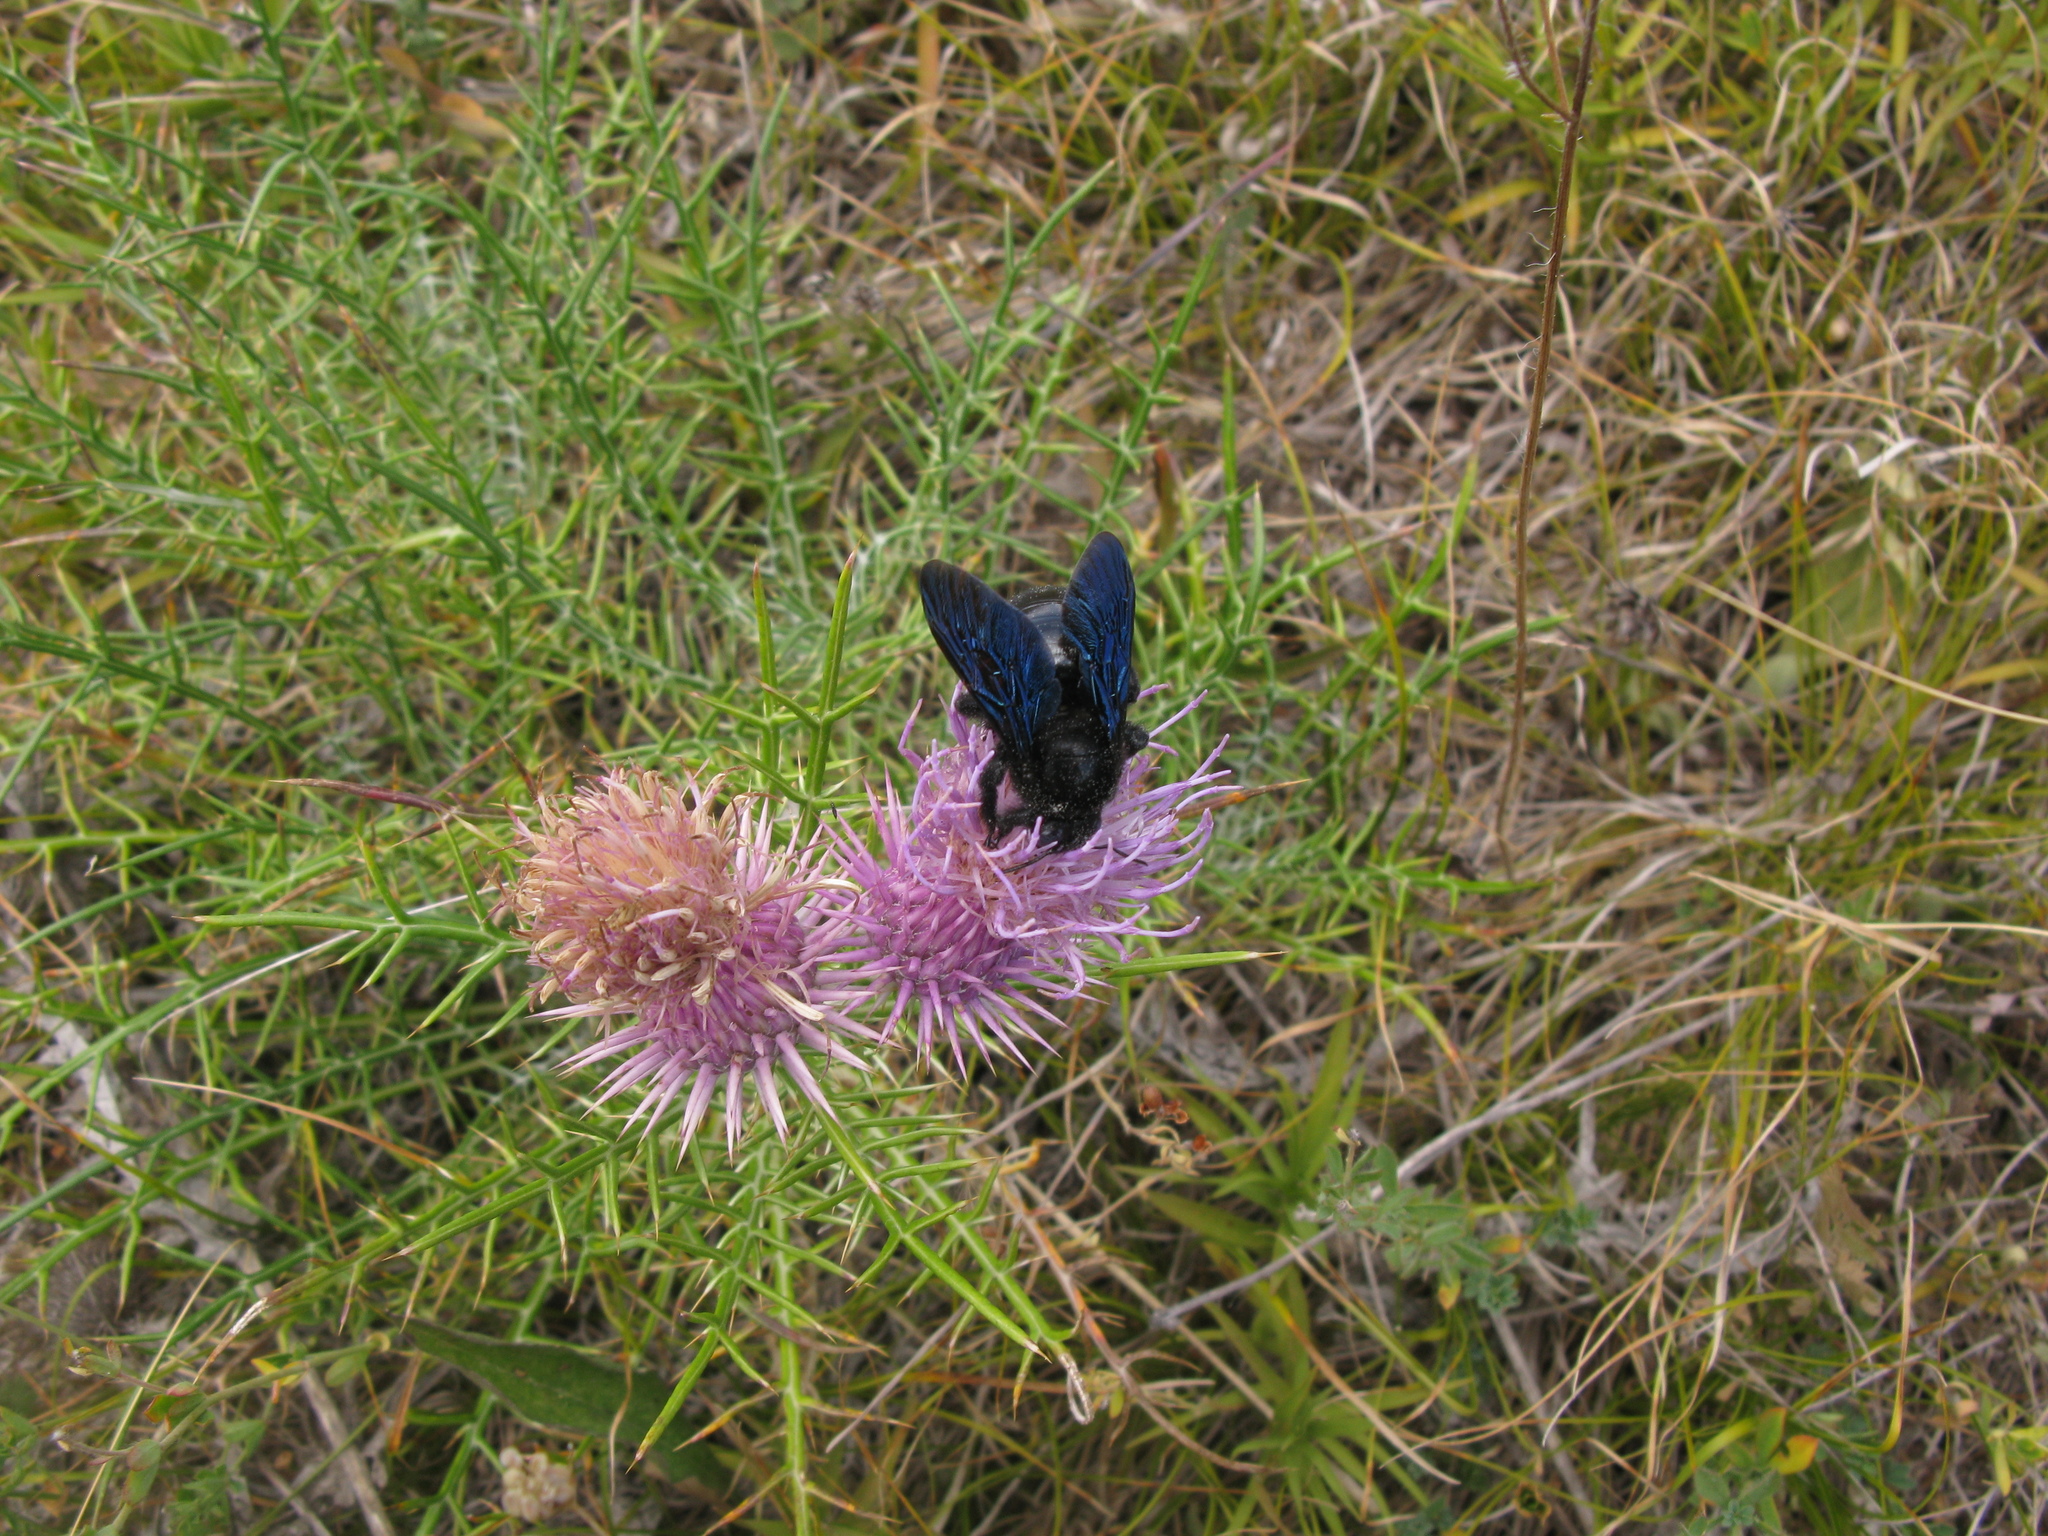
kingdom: Plantae
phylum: Tracheophyta
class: Magnoliopsida
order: Asterales
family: Asteraceae
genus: Ptilostemon
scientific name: Ptilostemon echinocephalus
